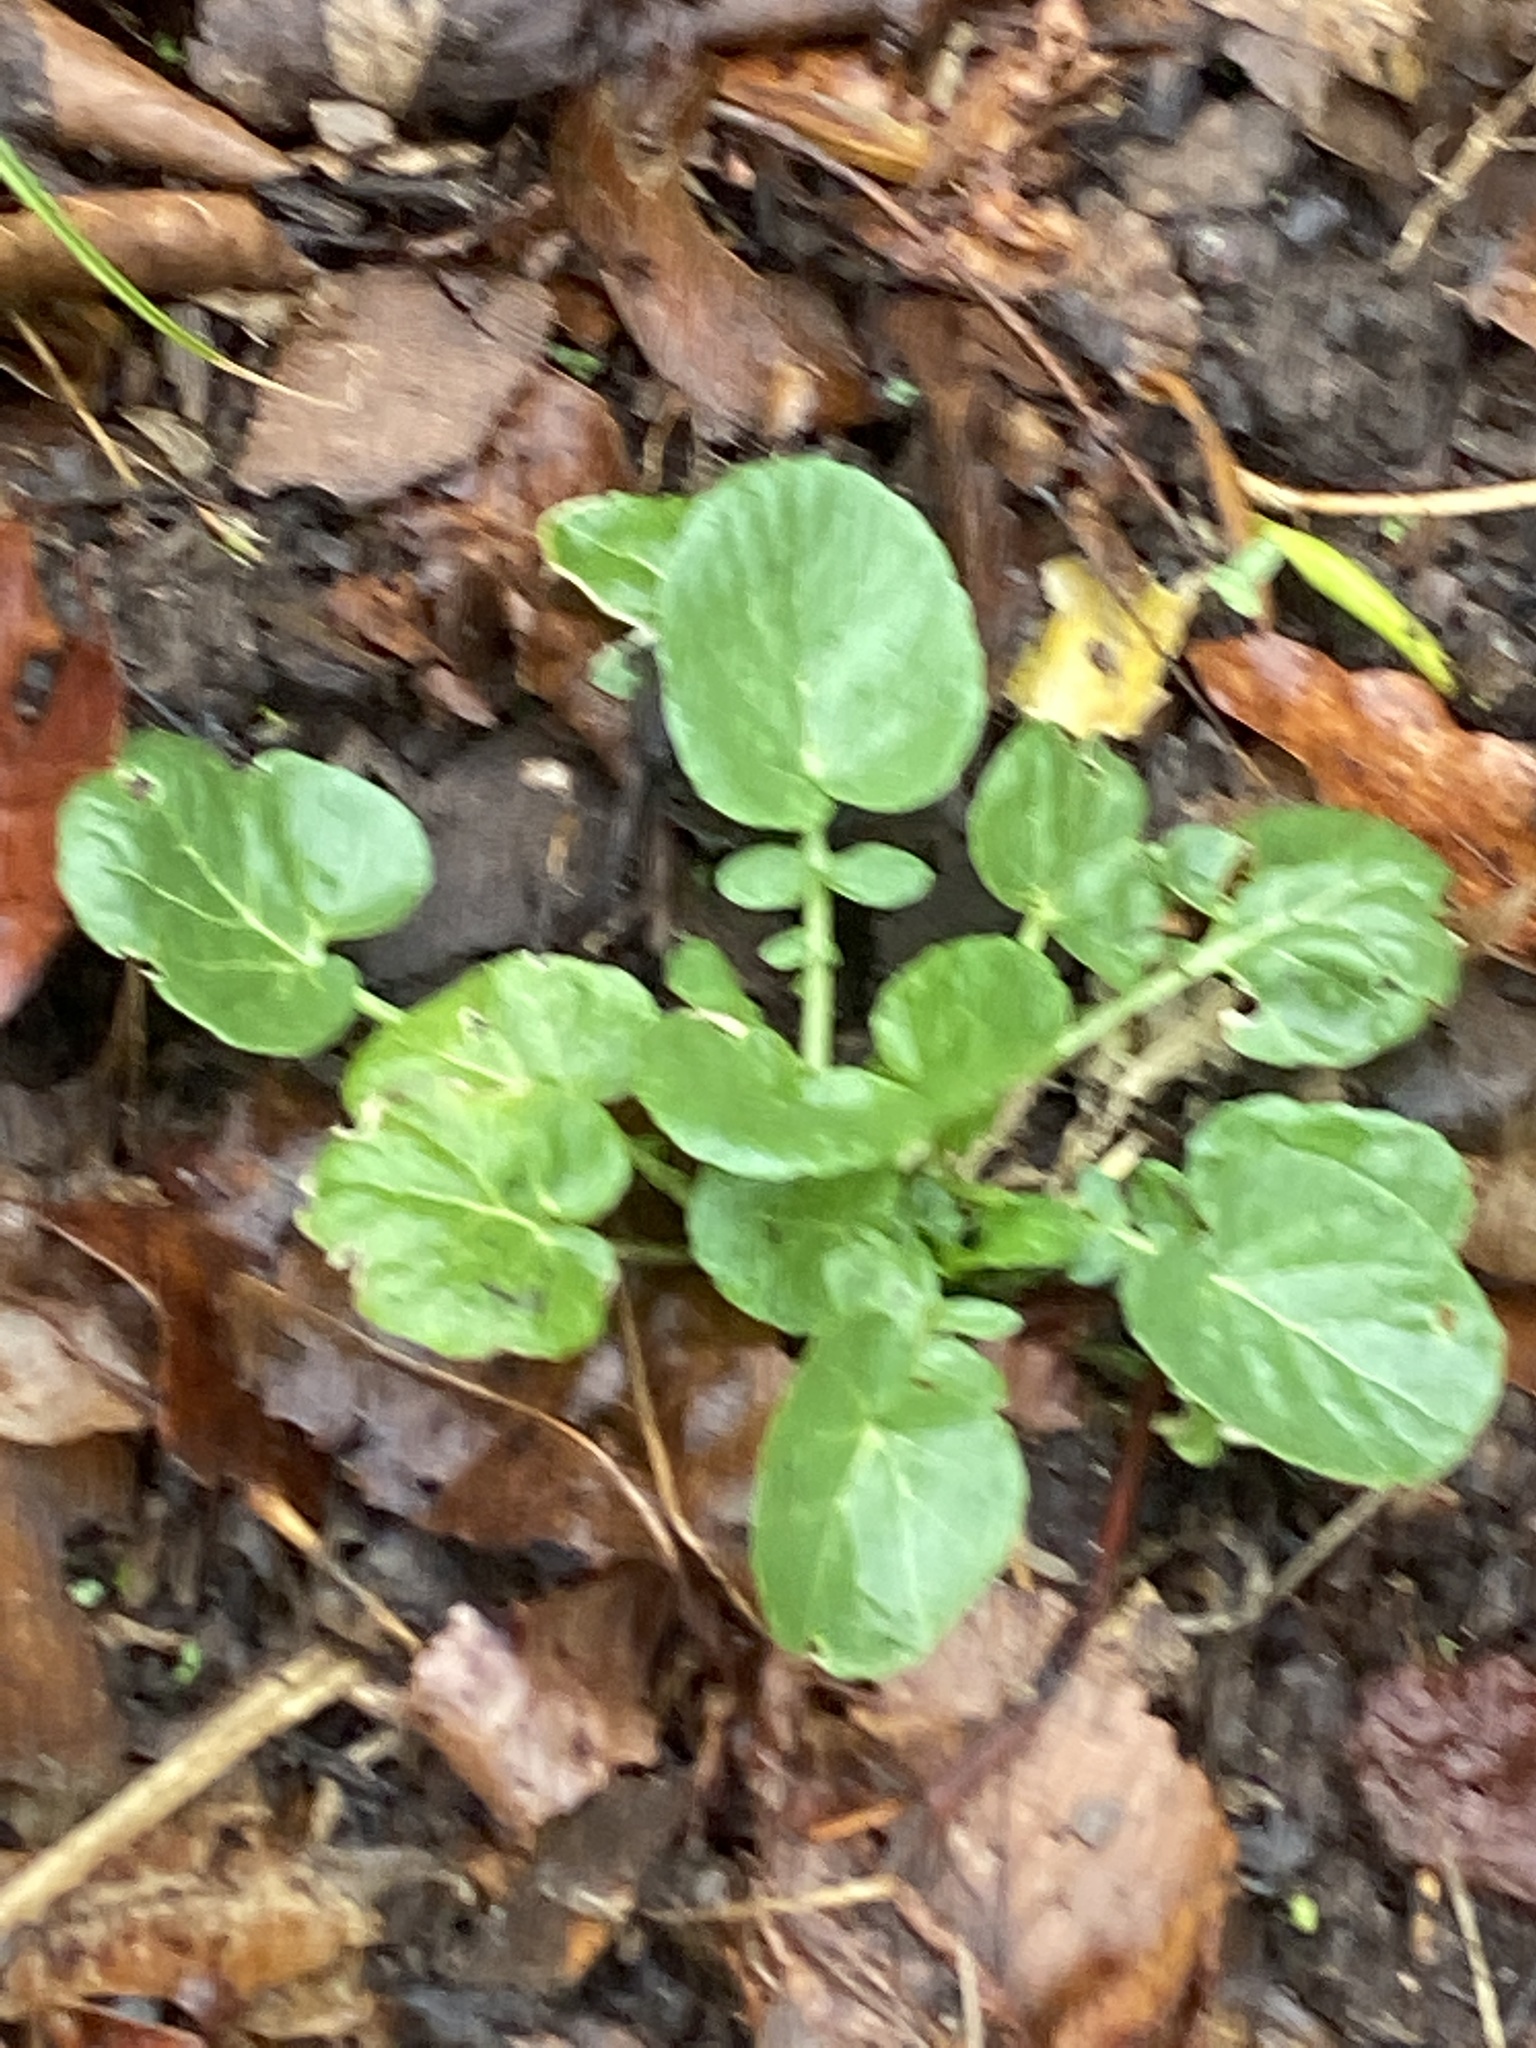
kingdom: Plantae
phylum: Tracheophyta
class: Magnoliopsida
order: Brassicales
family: Brassicaceae
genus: Barbarea
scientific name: Barbarea vulgaris
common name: Cressy-greens
